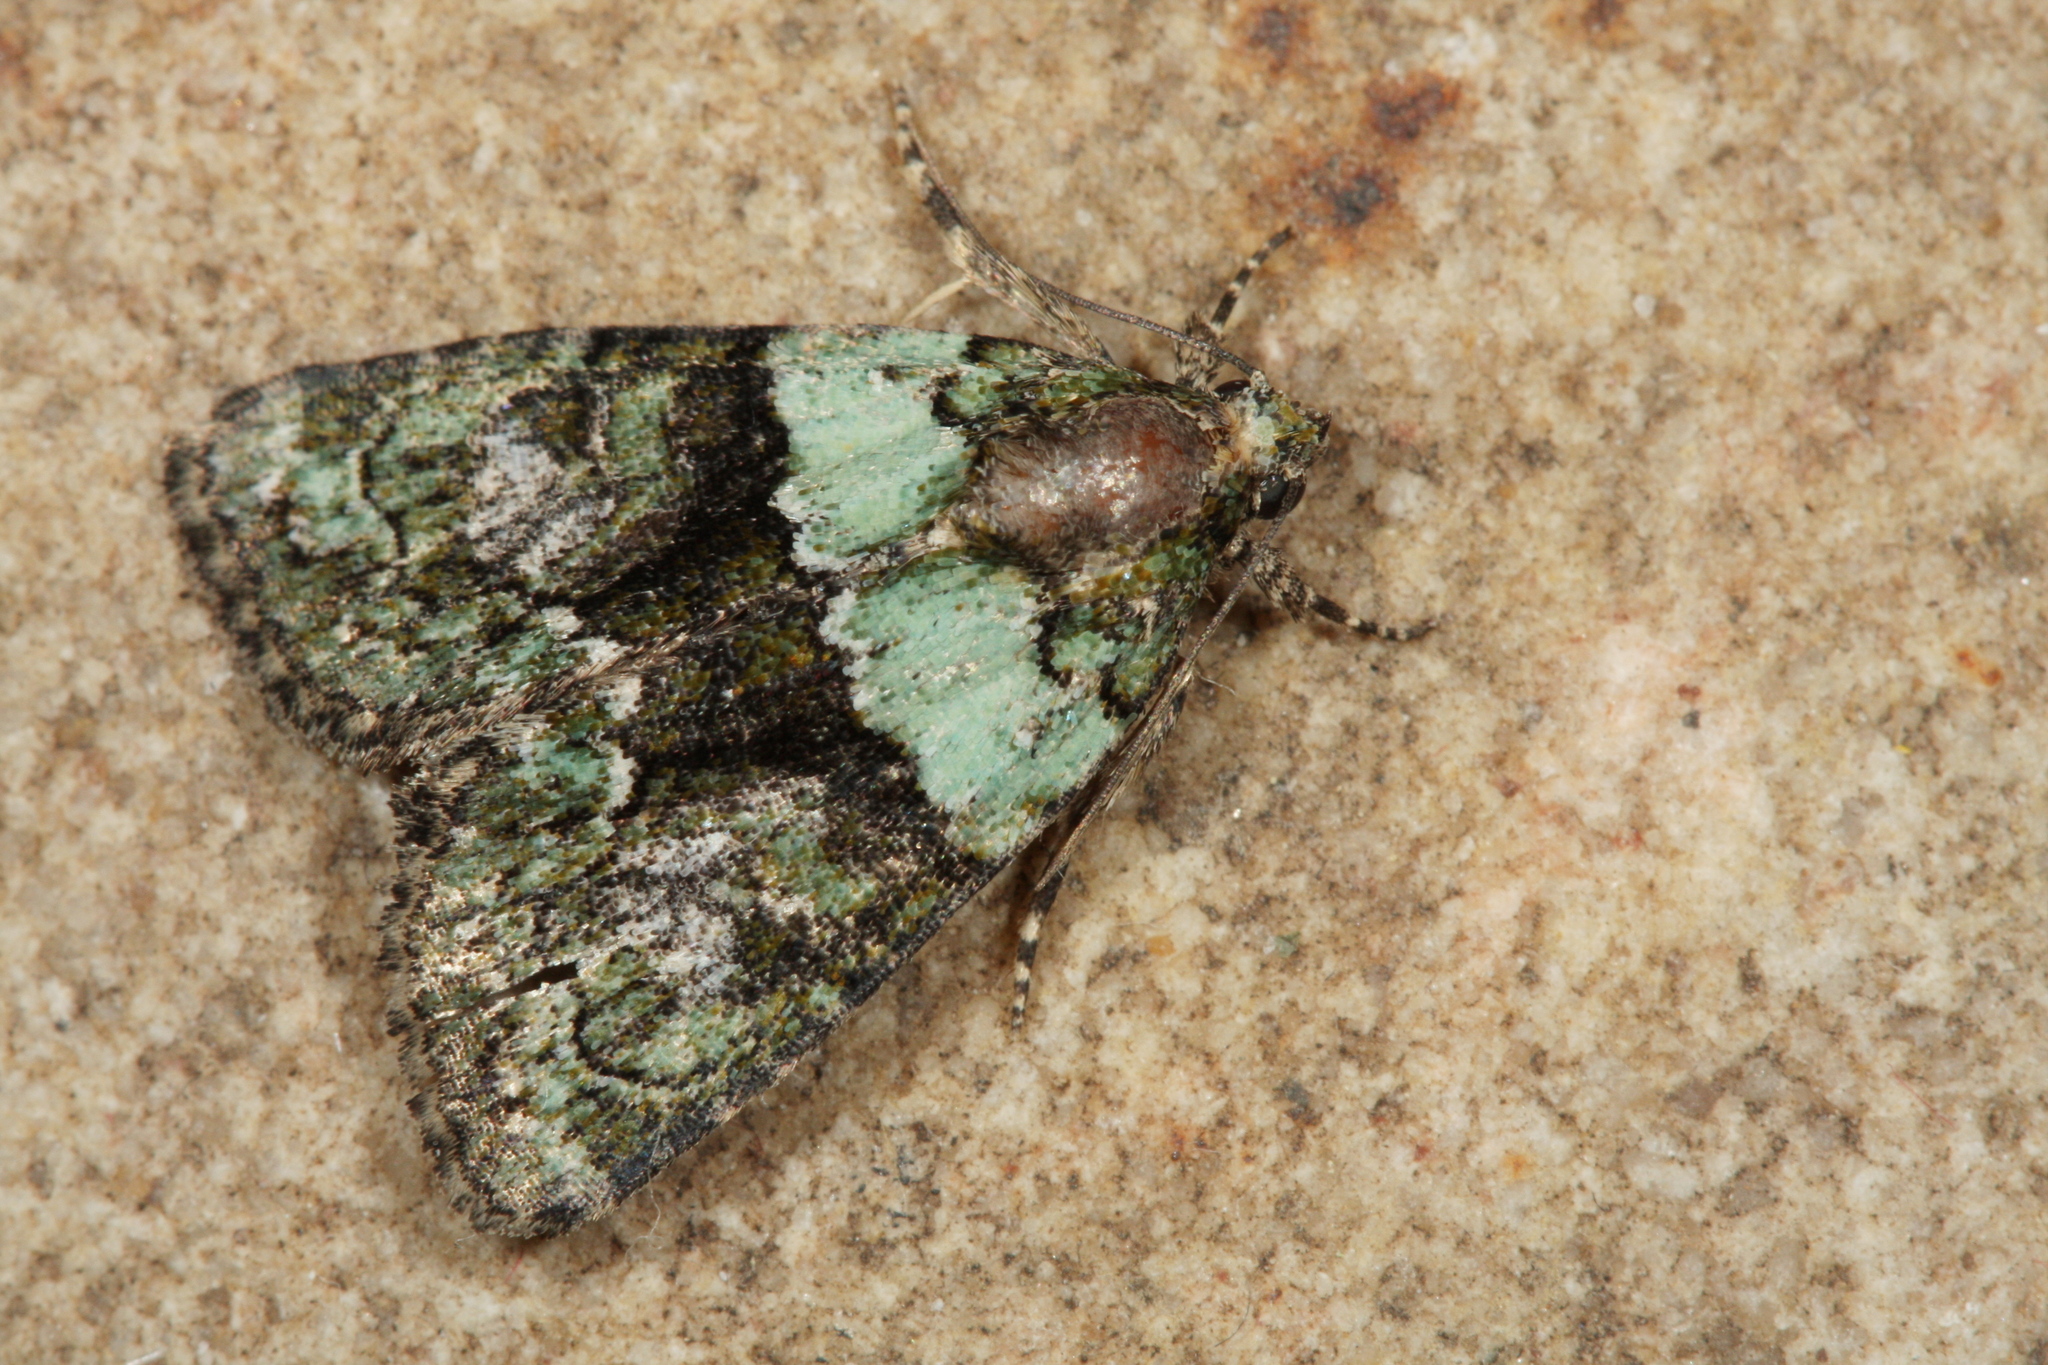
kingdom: Animalia
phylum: Arthropoda
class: Insecta
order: Lepidoptera
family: Noctuidae
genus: Cryphia
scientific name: Cryphia algae
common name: Tree-lichen beauty
